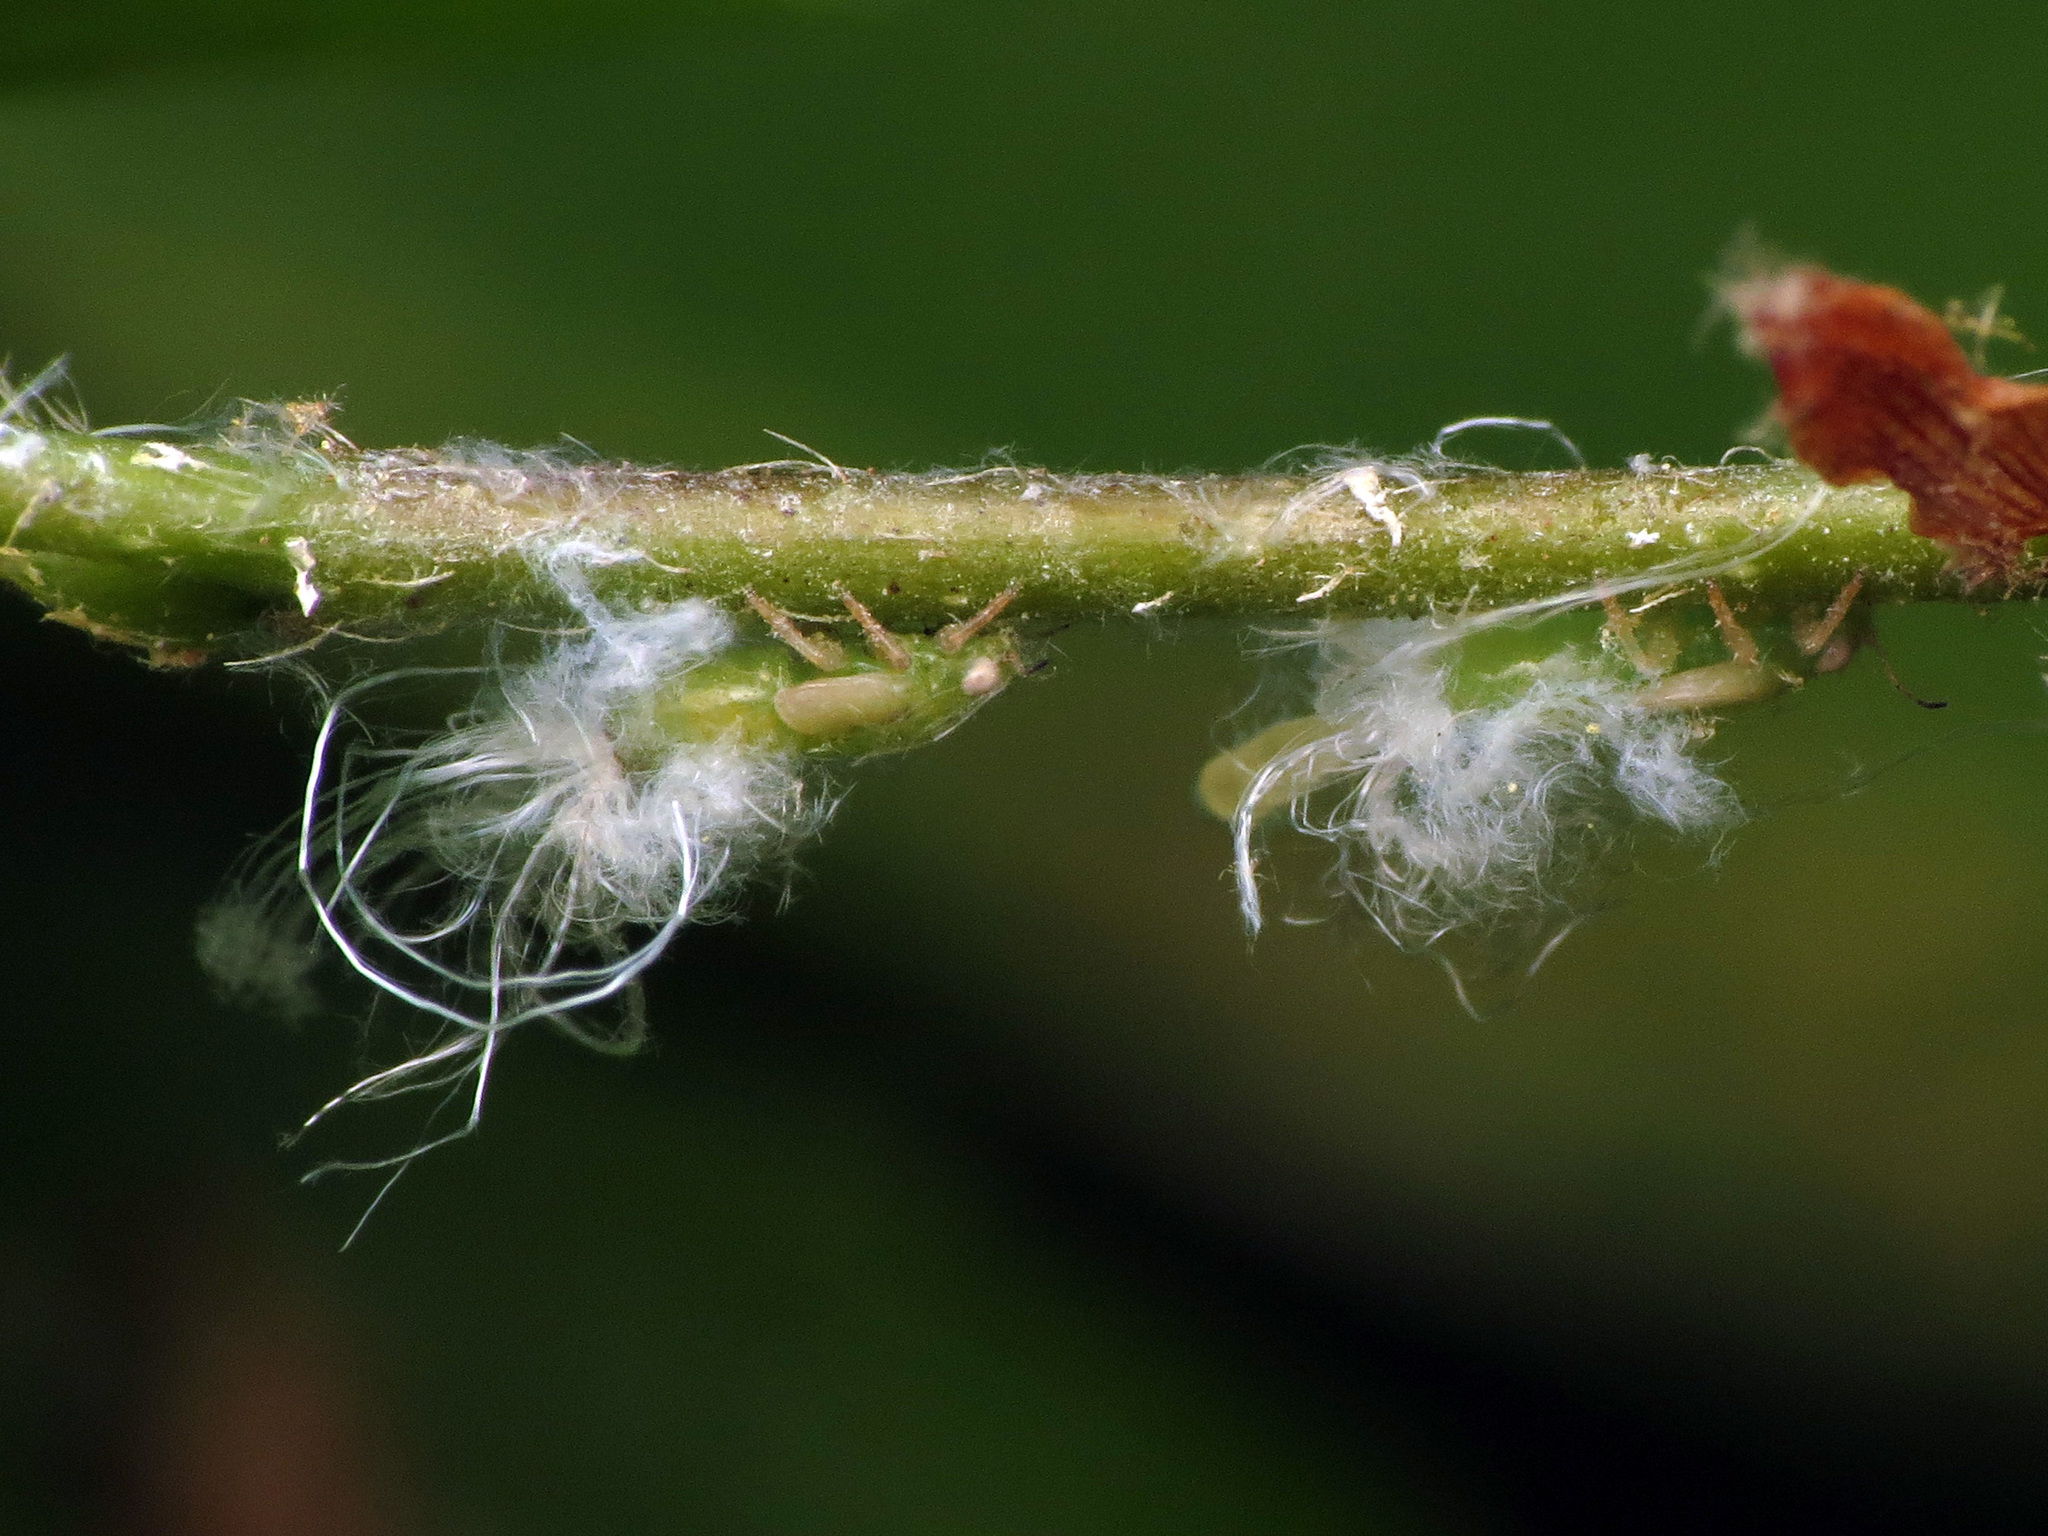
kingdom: Animalia
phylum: Arthropoda
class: Insecta
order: Hemiptera
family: Psyllidae
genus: Psylla
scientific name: Psylla carpinicola
